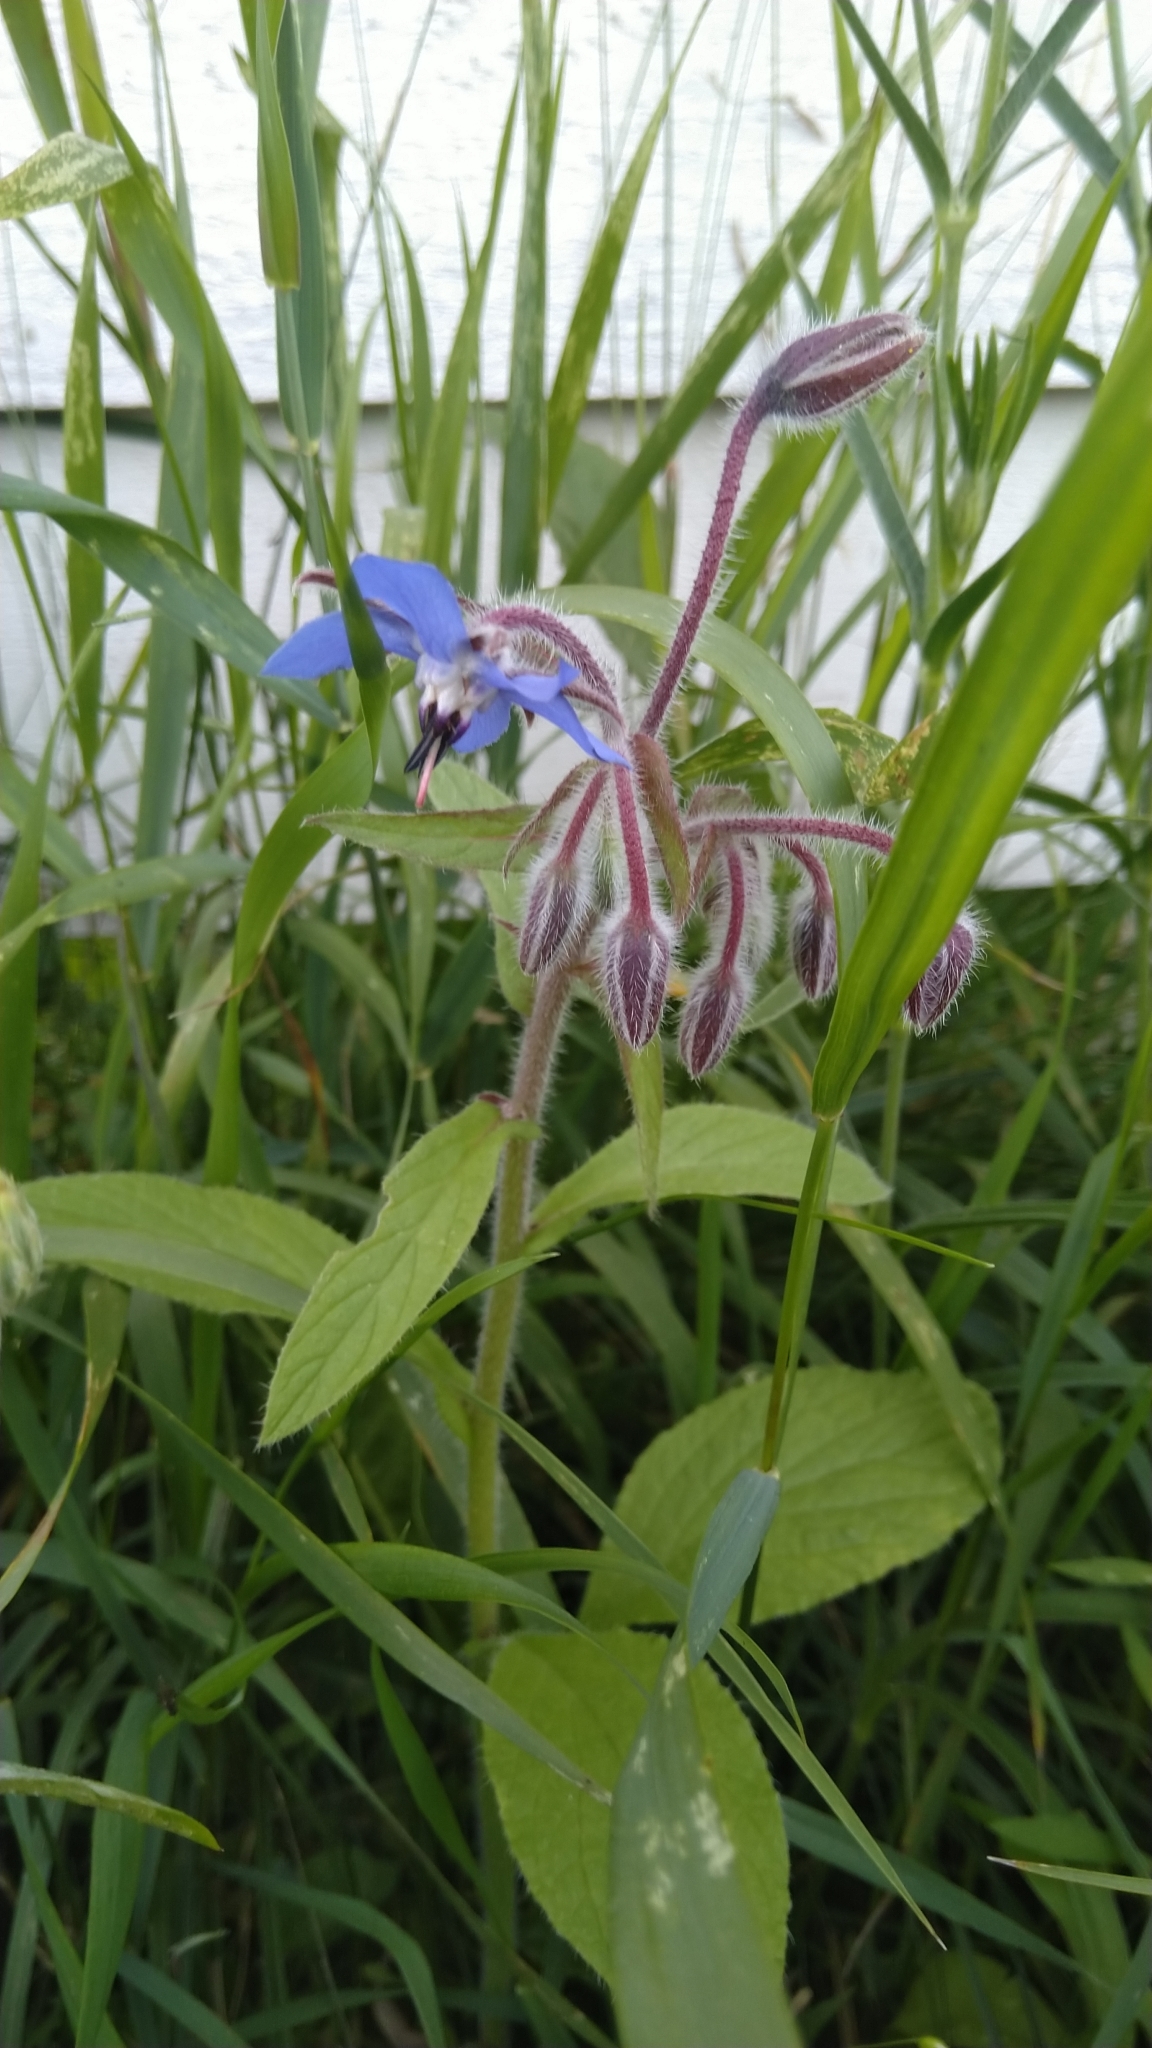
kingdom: Plantae
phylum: Tracheophyta
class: Magnoliopsida
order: Boraginales
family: Boraginaceae
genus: Borago
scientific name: Borago officinalis
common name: Borage
